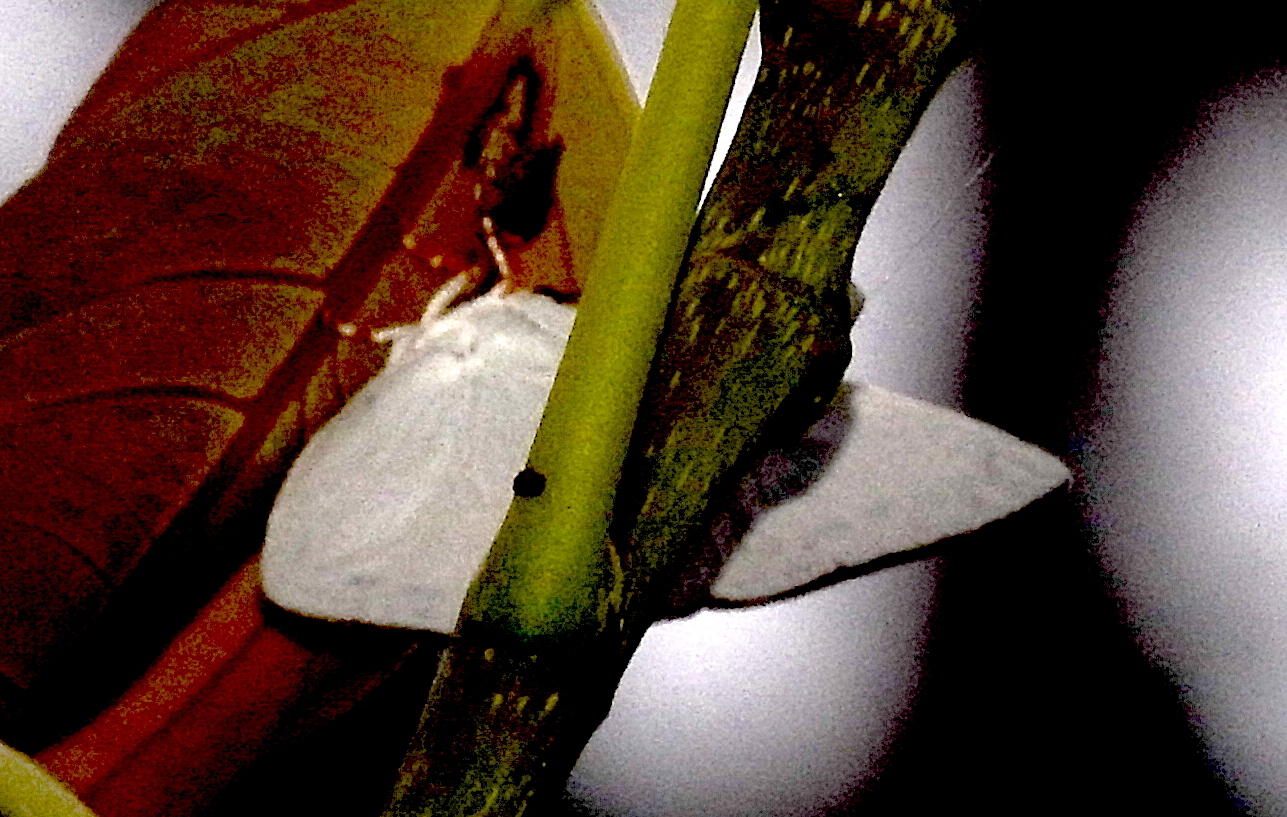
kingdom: Animalia
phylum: Arthropoda
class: Insecta
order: Lepidoptera
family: Lycaenidae
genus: Curetis
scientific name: Curetis thetis
